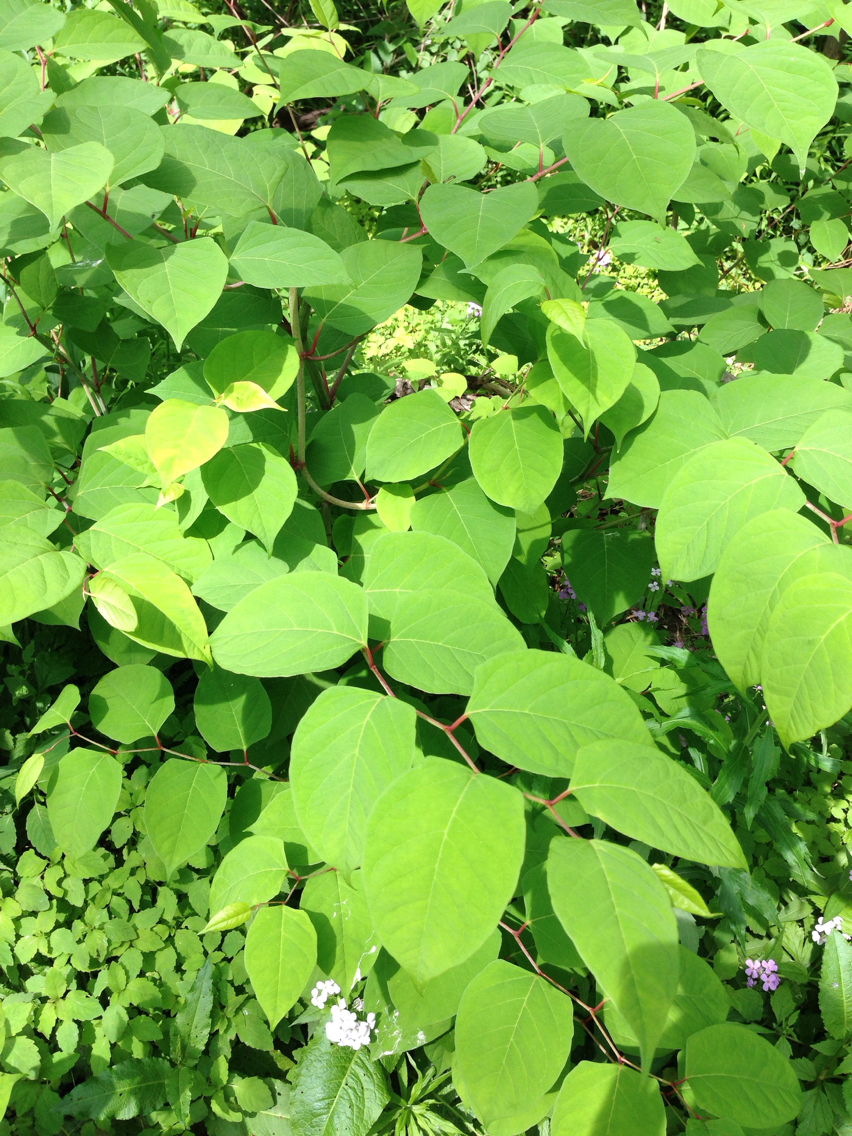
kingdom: Plantae
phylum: Tracheophyta
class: Magnoliopsida
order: Caryophyllales
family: Polygonaceae
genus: Reynoutria
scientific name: Reynoutria japonica
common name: Japanese knotweed
